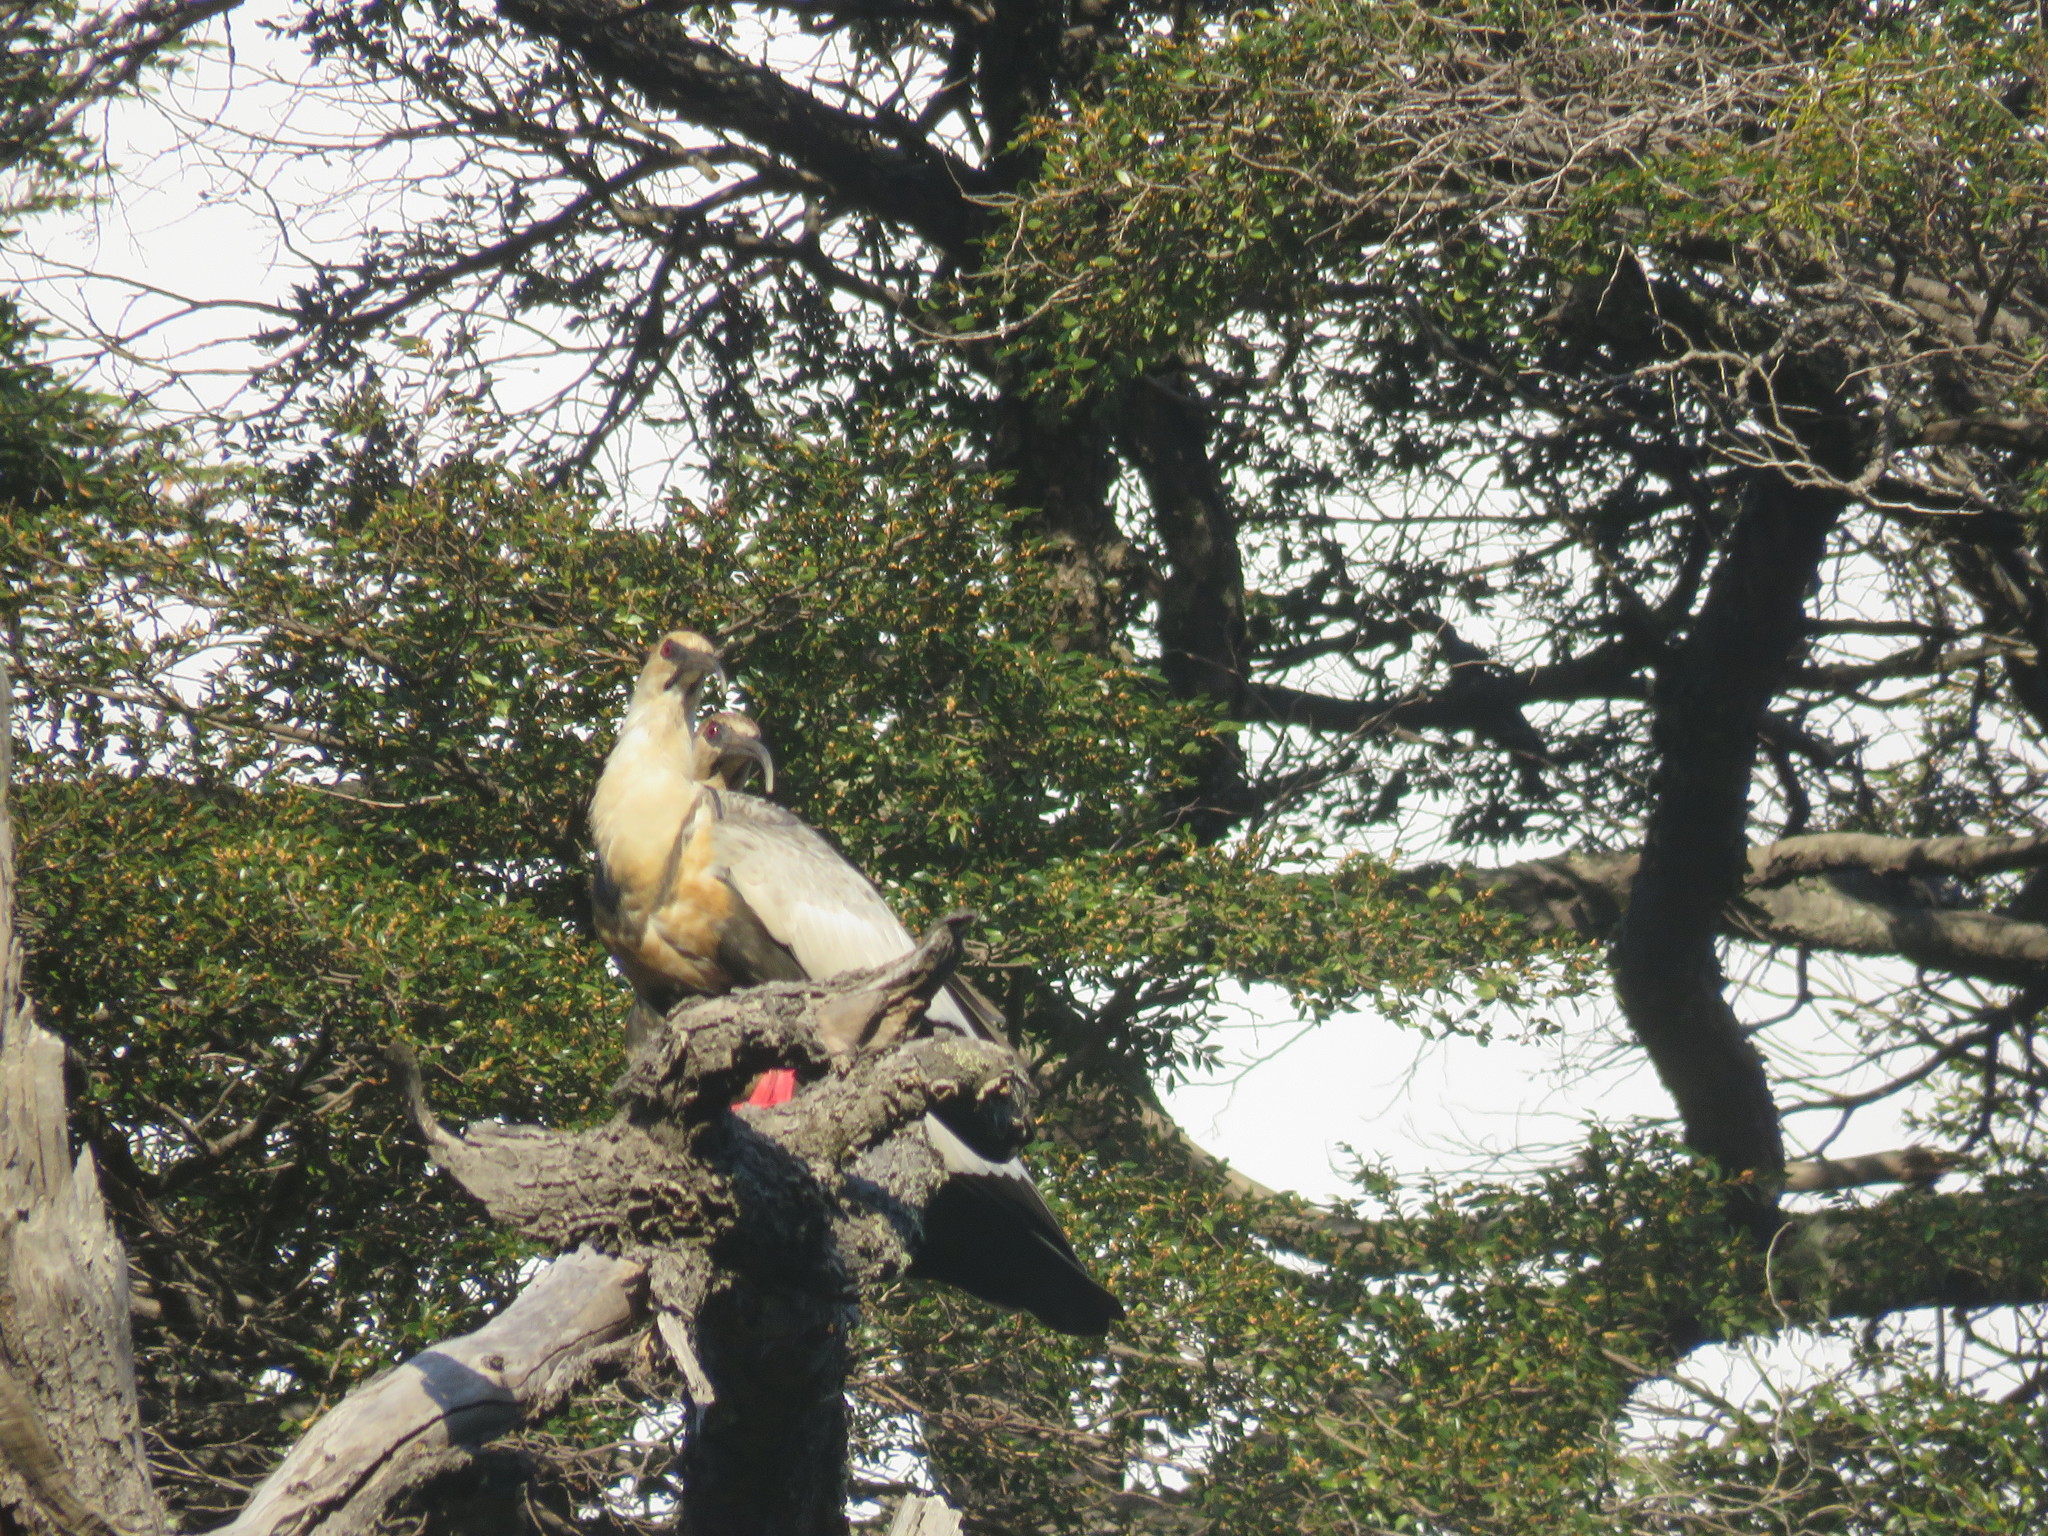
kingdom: Animalia
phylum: Chordata
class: Aves
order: Pelecaniformes
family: Threskiornithidae
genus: Theristicus
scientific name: Theristicus melanopis
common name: Black-faced ibis
